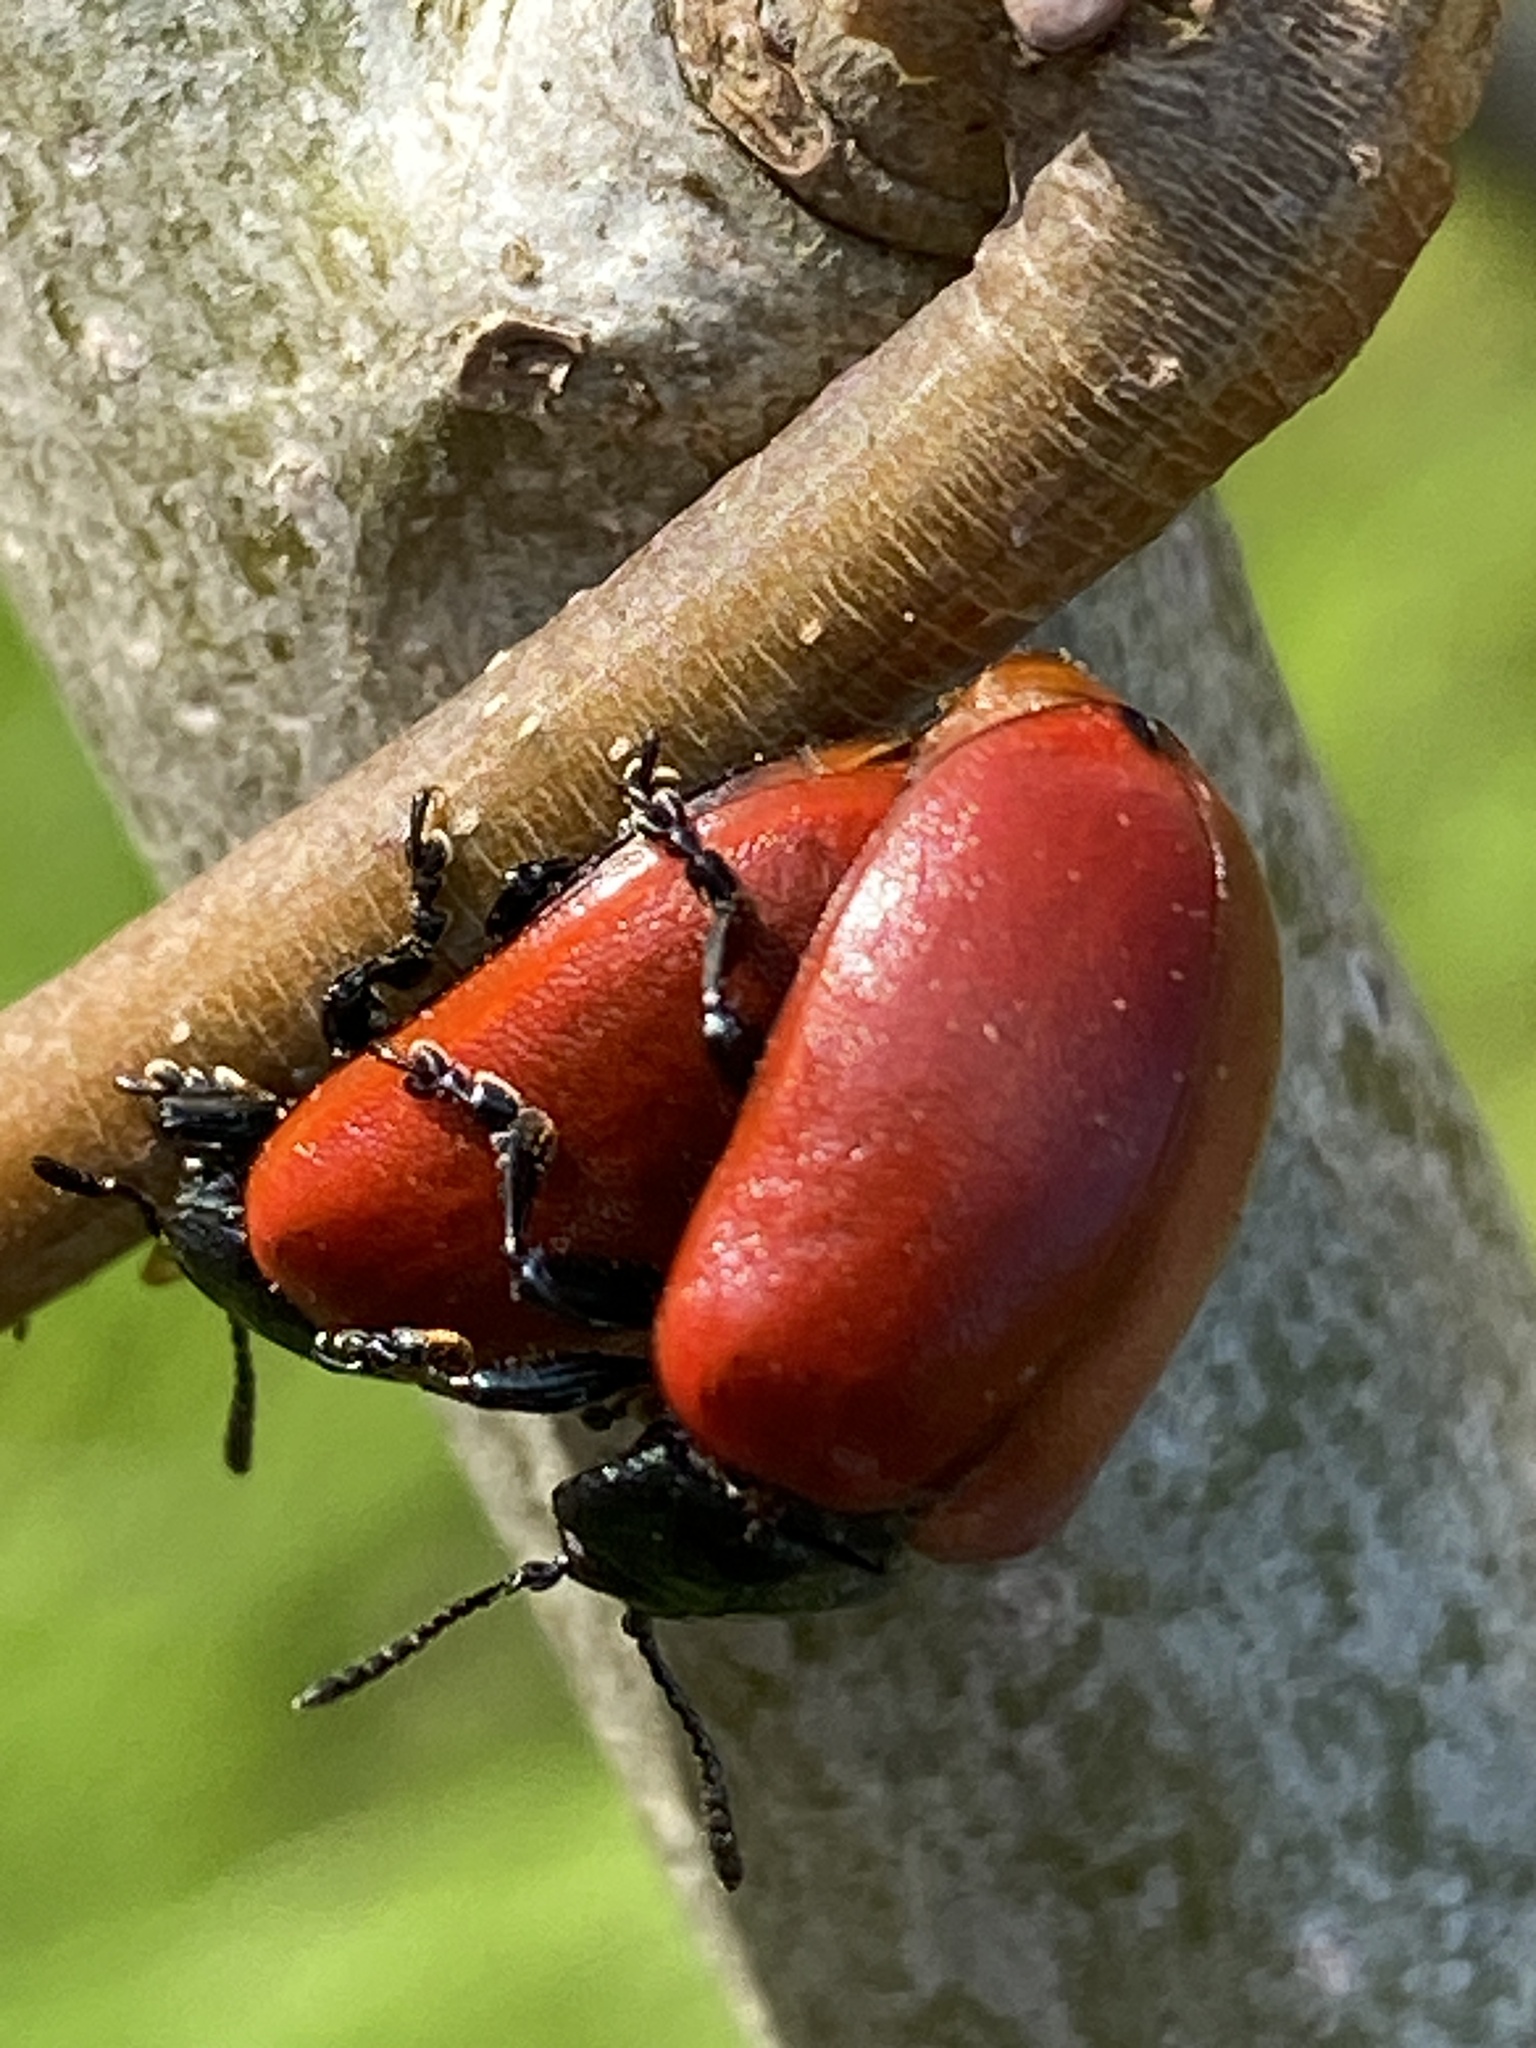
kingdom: Animalia
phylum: Arthropoda
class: Insecta
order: Coleoptera
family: Chrysomelidae
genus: Chrysomela
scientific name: Chrysomela populi
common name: Red poplar leaf beetle
